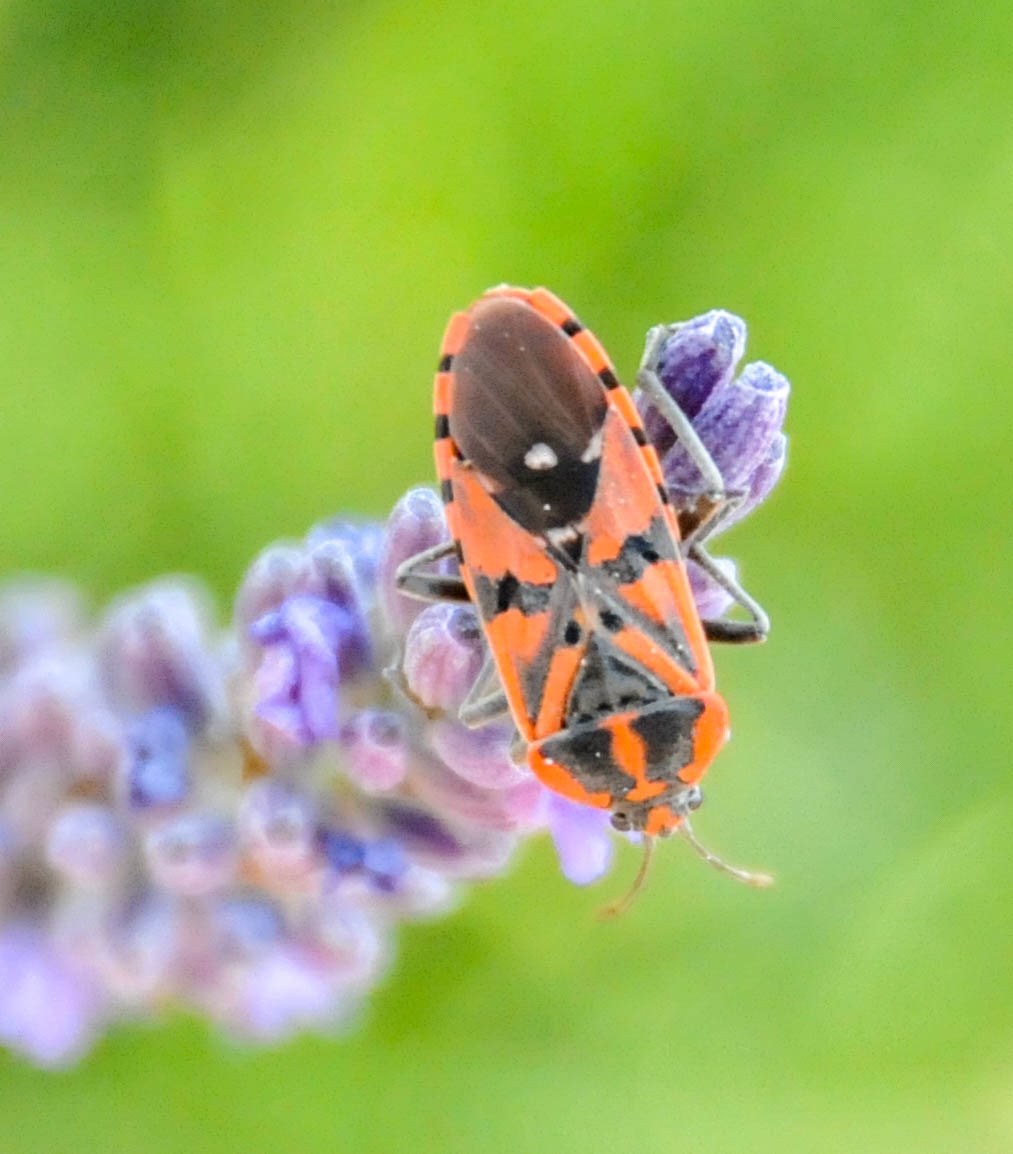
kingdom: Animalia
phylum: Arthropoda
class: Insecta
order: Hemiptera
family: Lygaeidae
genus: Spilostethus
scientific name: Spilostethus pandurus
